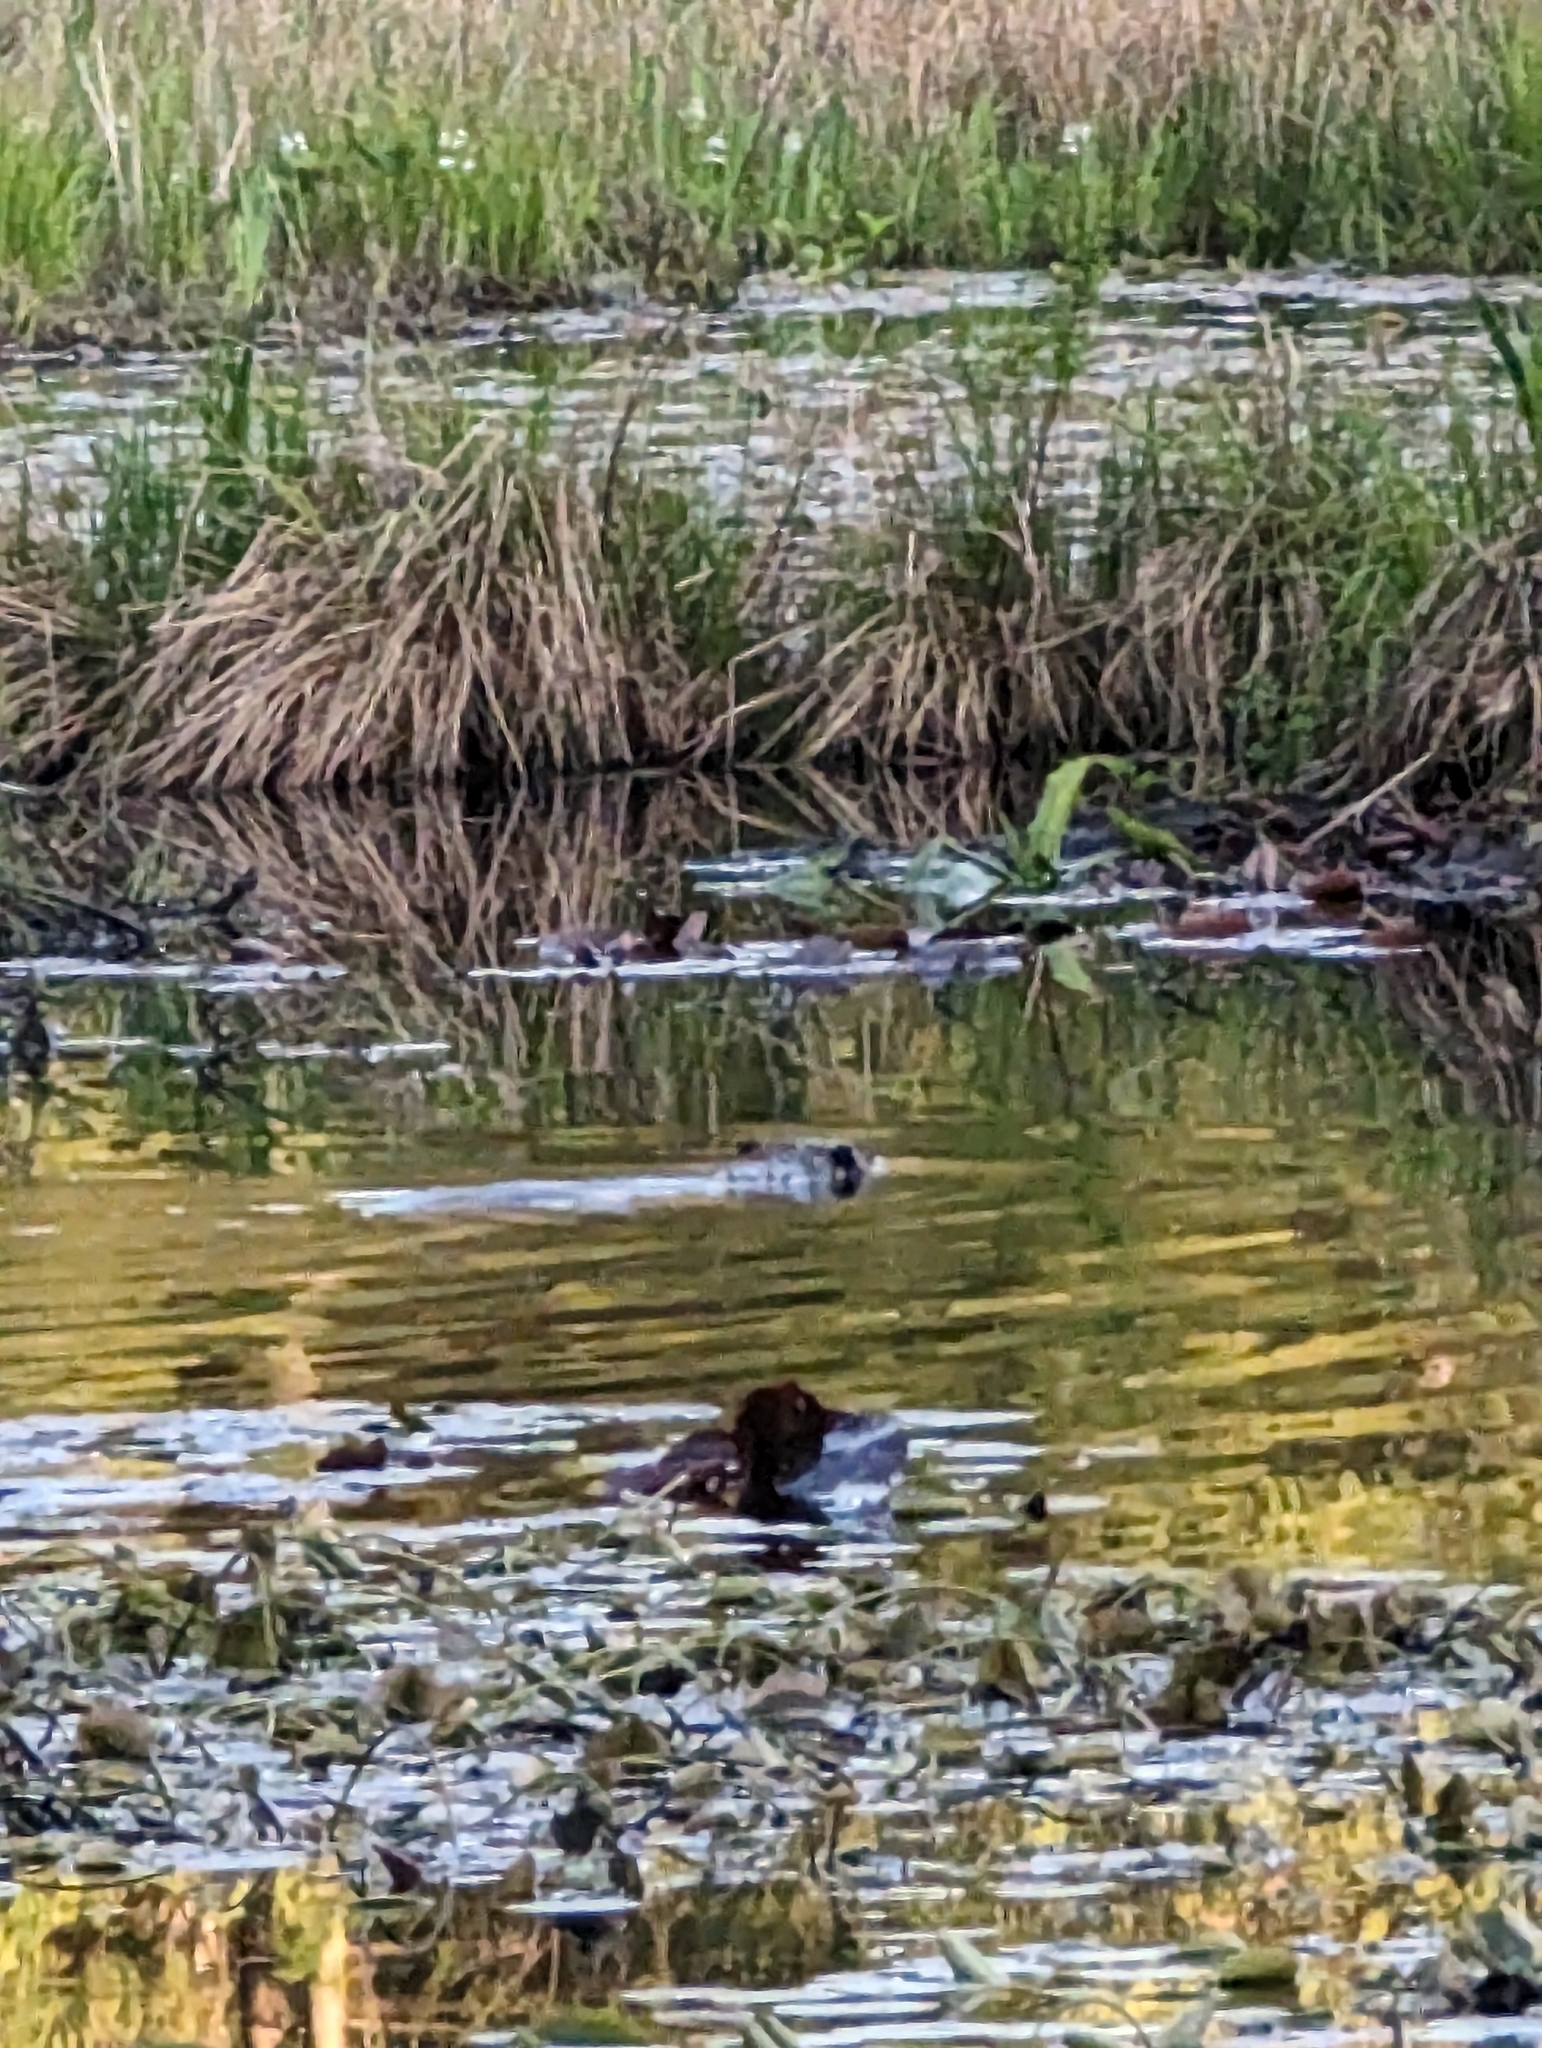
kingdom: Animalia
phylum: Chordata
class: Mammalia
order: Rodentia
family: Castoridae
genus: Castor
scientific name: Castor canadensis
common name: American beaver
